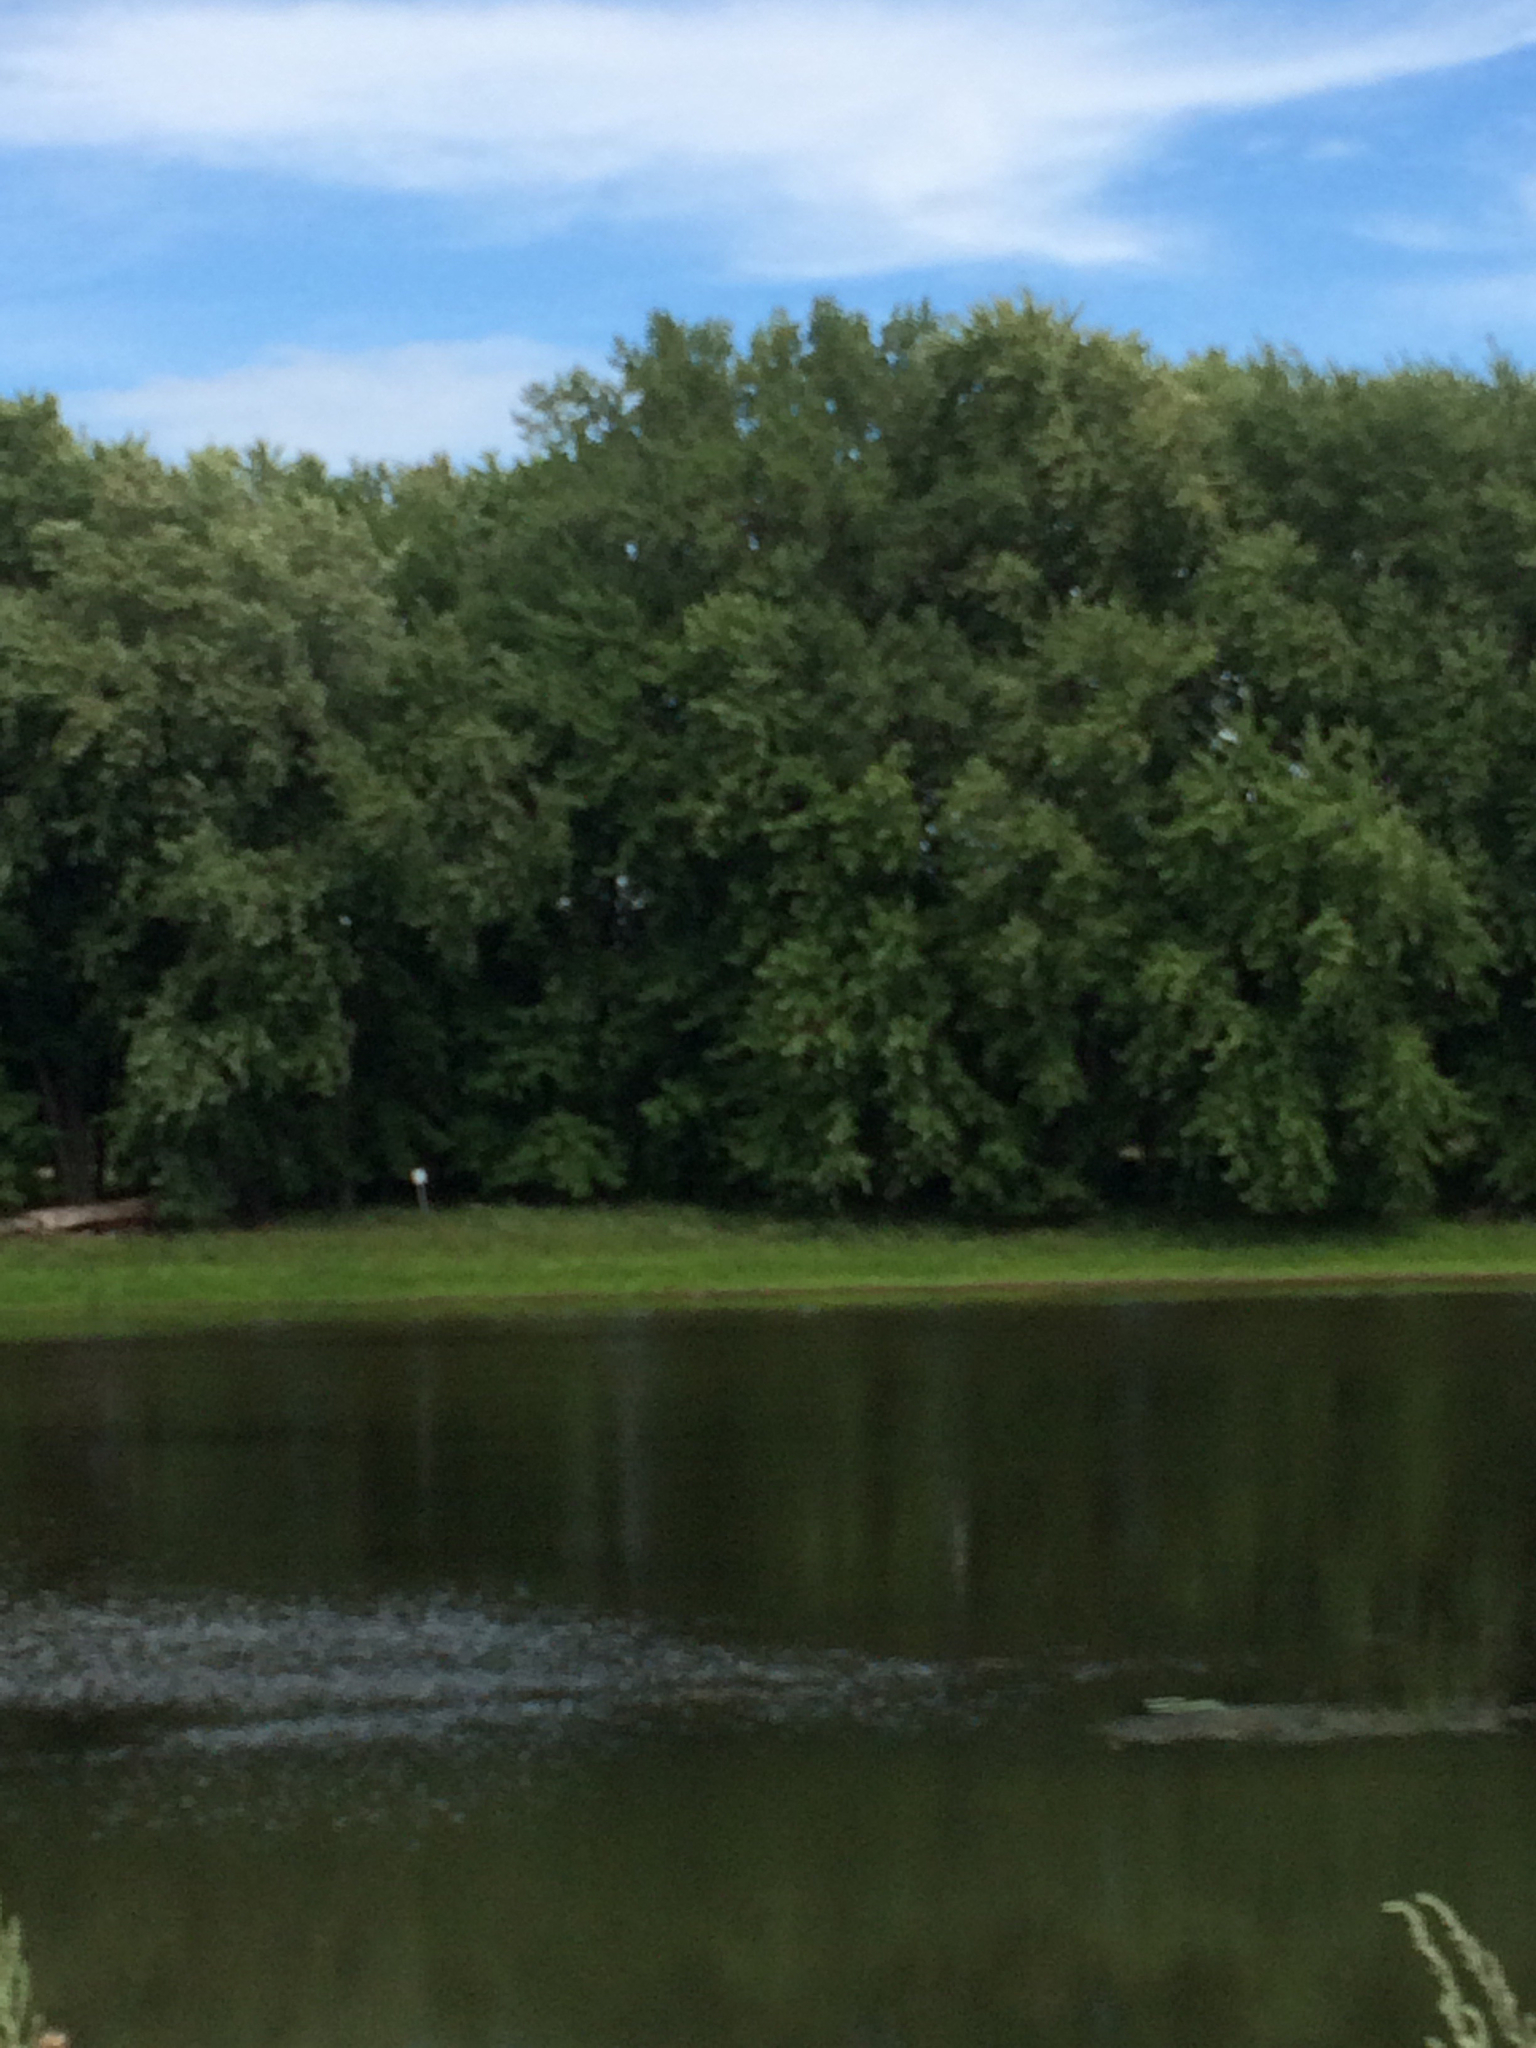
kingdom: Plantae
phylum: Tracheophyta
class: Magnoliopsida
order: Sapindales
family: Sapindaceae
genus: Acer
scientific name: Acer saccharinum
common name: Silver maple
